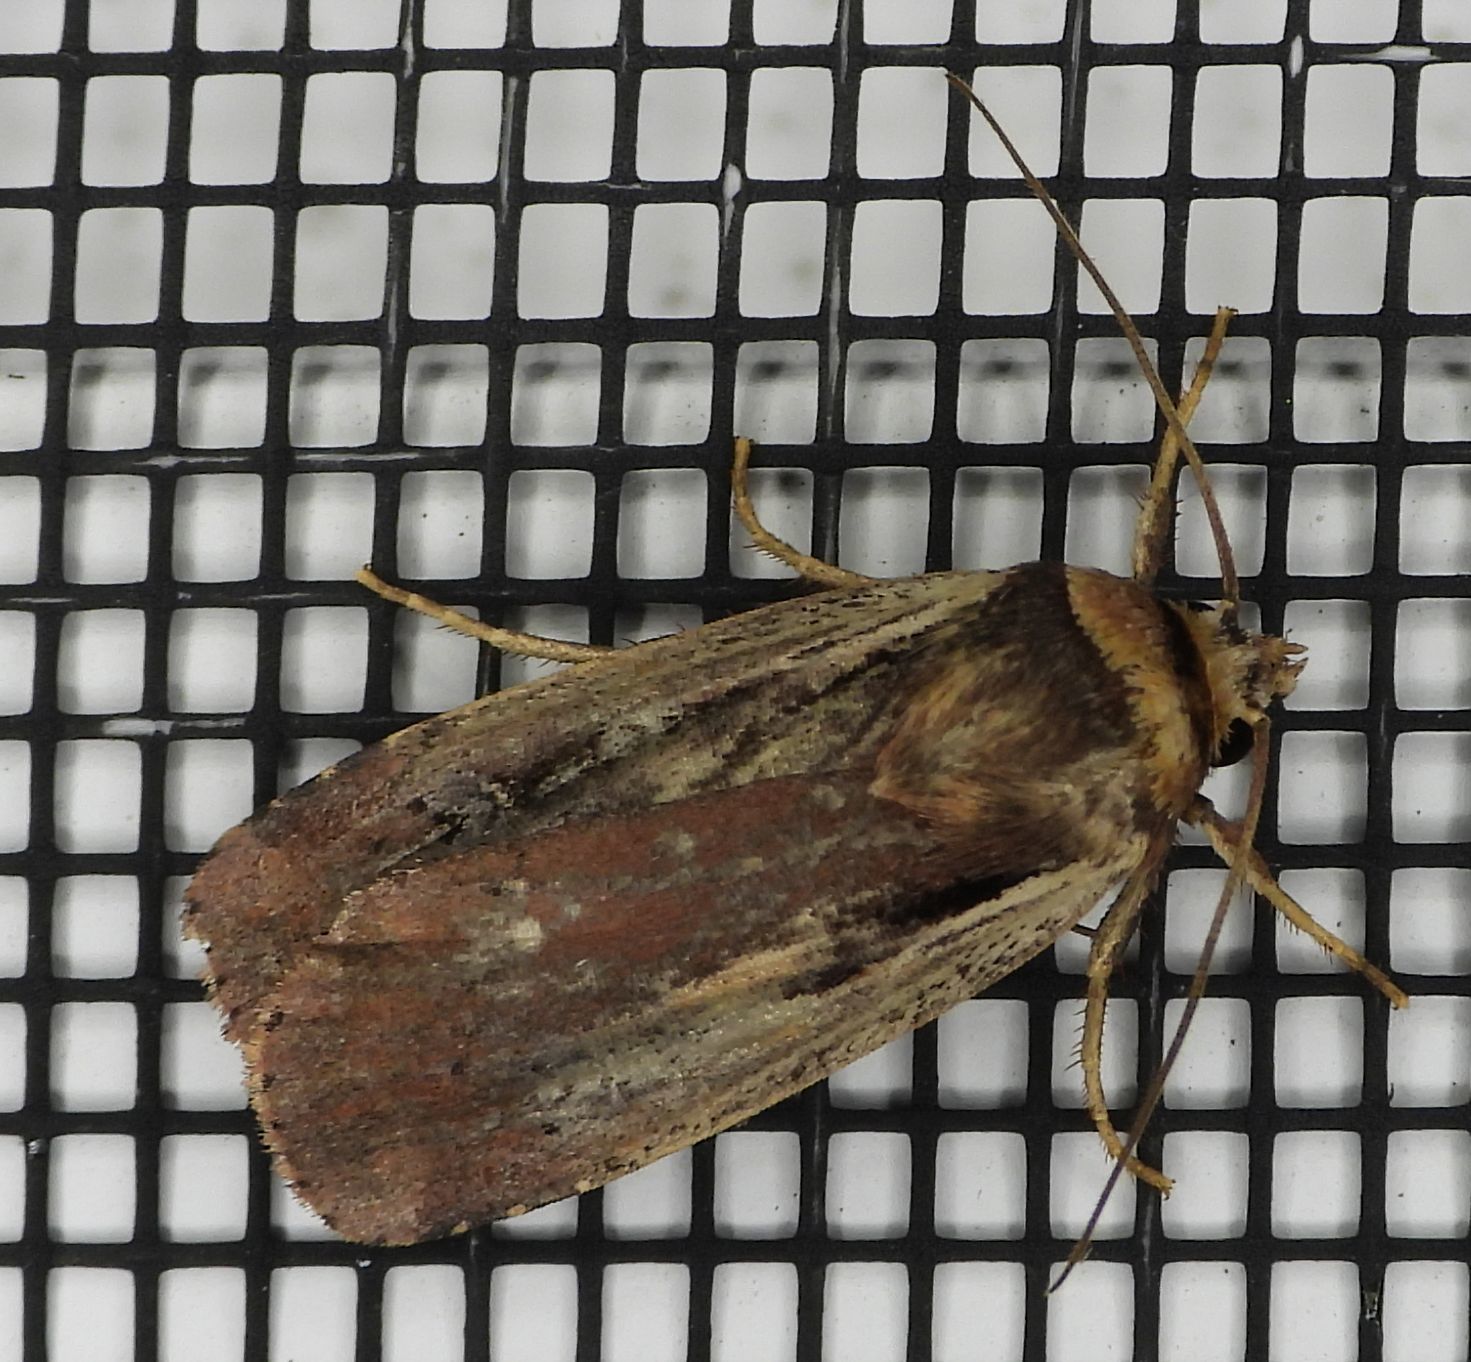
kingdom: Animalia
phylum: Arthropoda
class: Insecta
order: Lepidoptera
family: Noctuidae
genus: Ochropleura
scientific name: Ochropleura implecta
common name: Flame-shouldered dart
